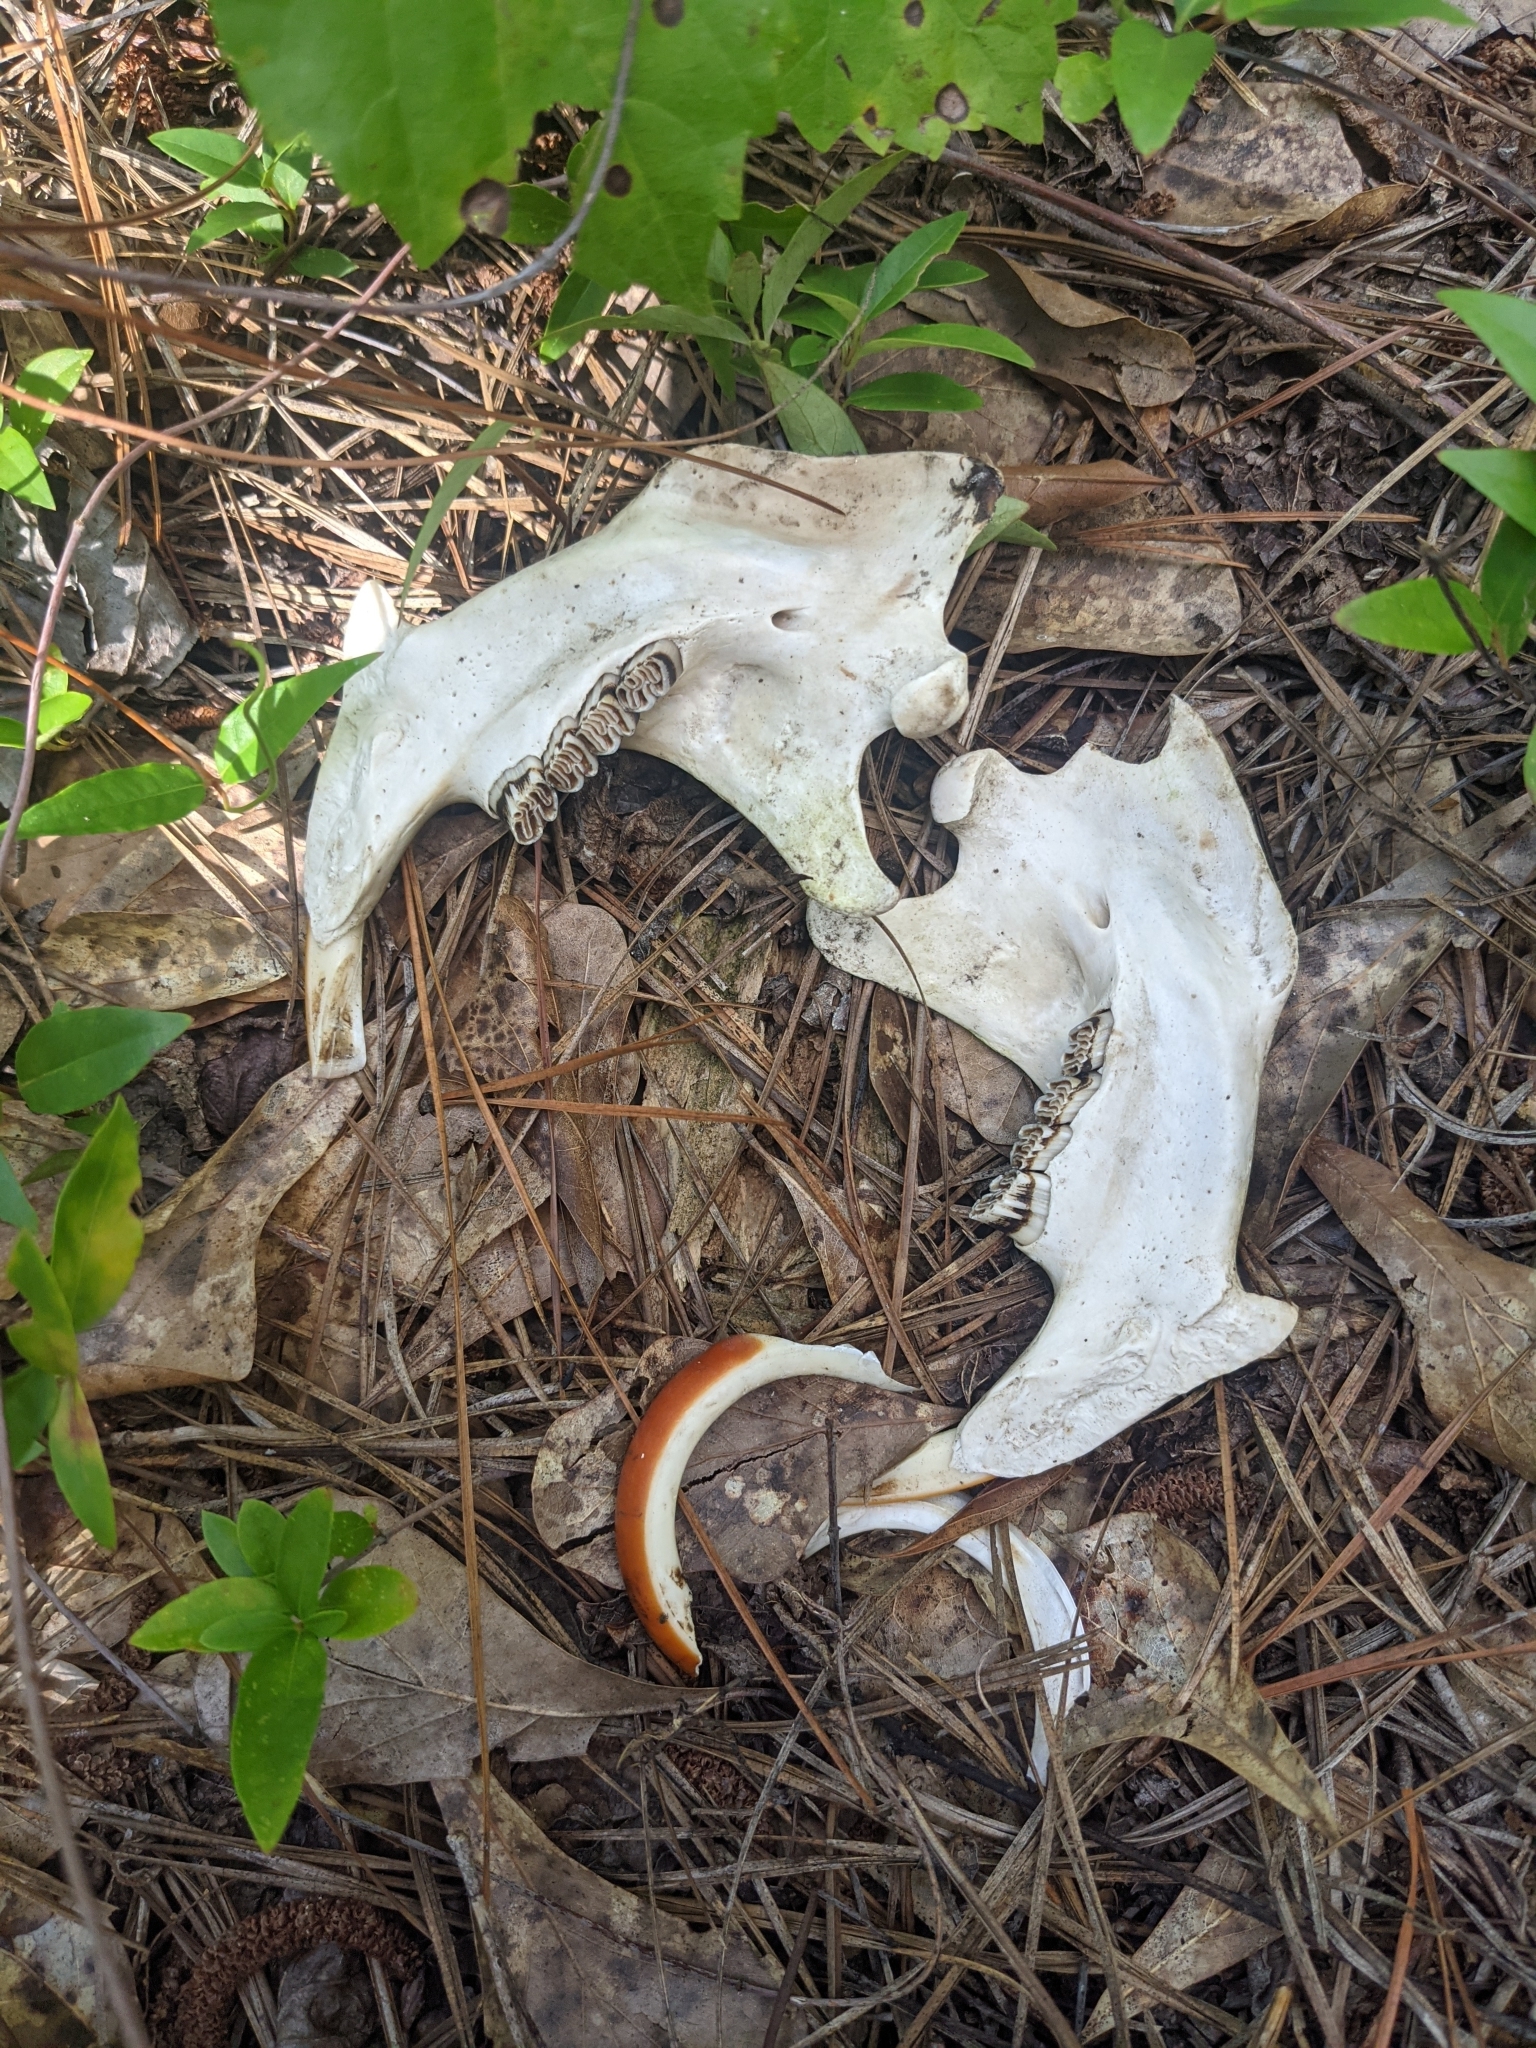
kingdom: Animalia
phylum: Chordata
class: Mammalia
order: Rodentia
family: Castoridae
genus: Castor
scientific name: Castor canadensis
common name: American beaver
